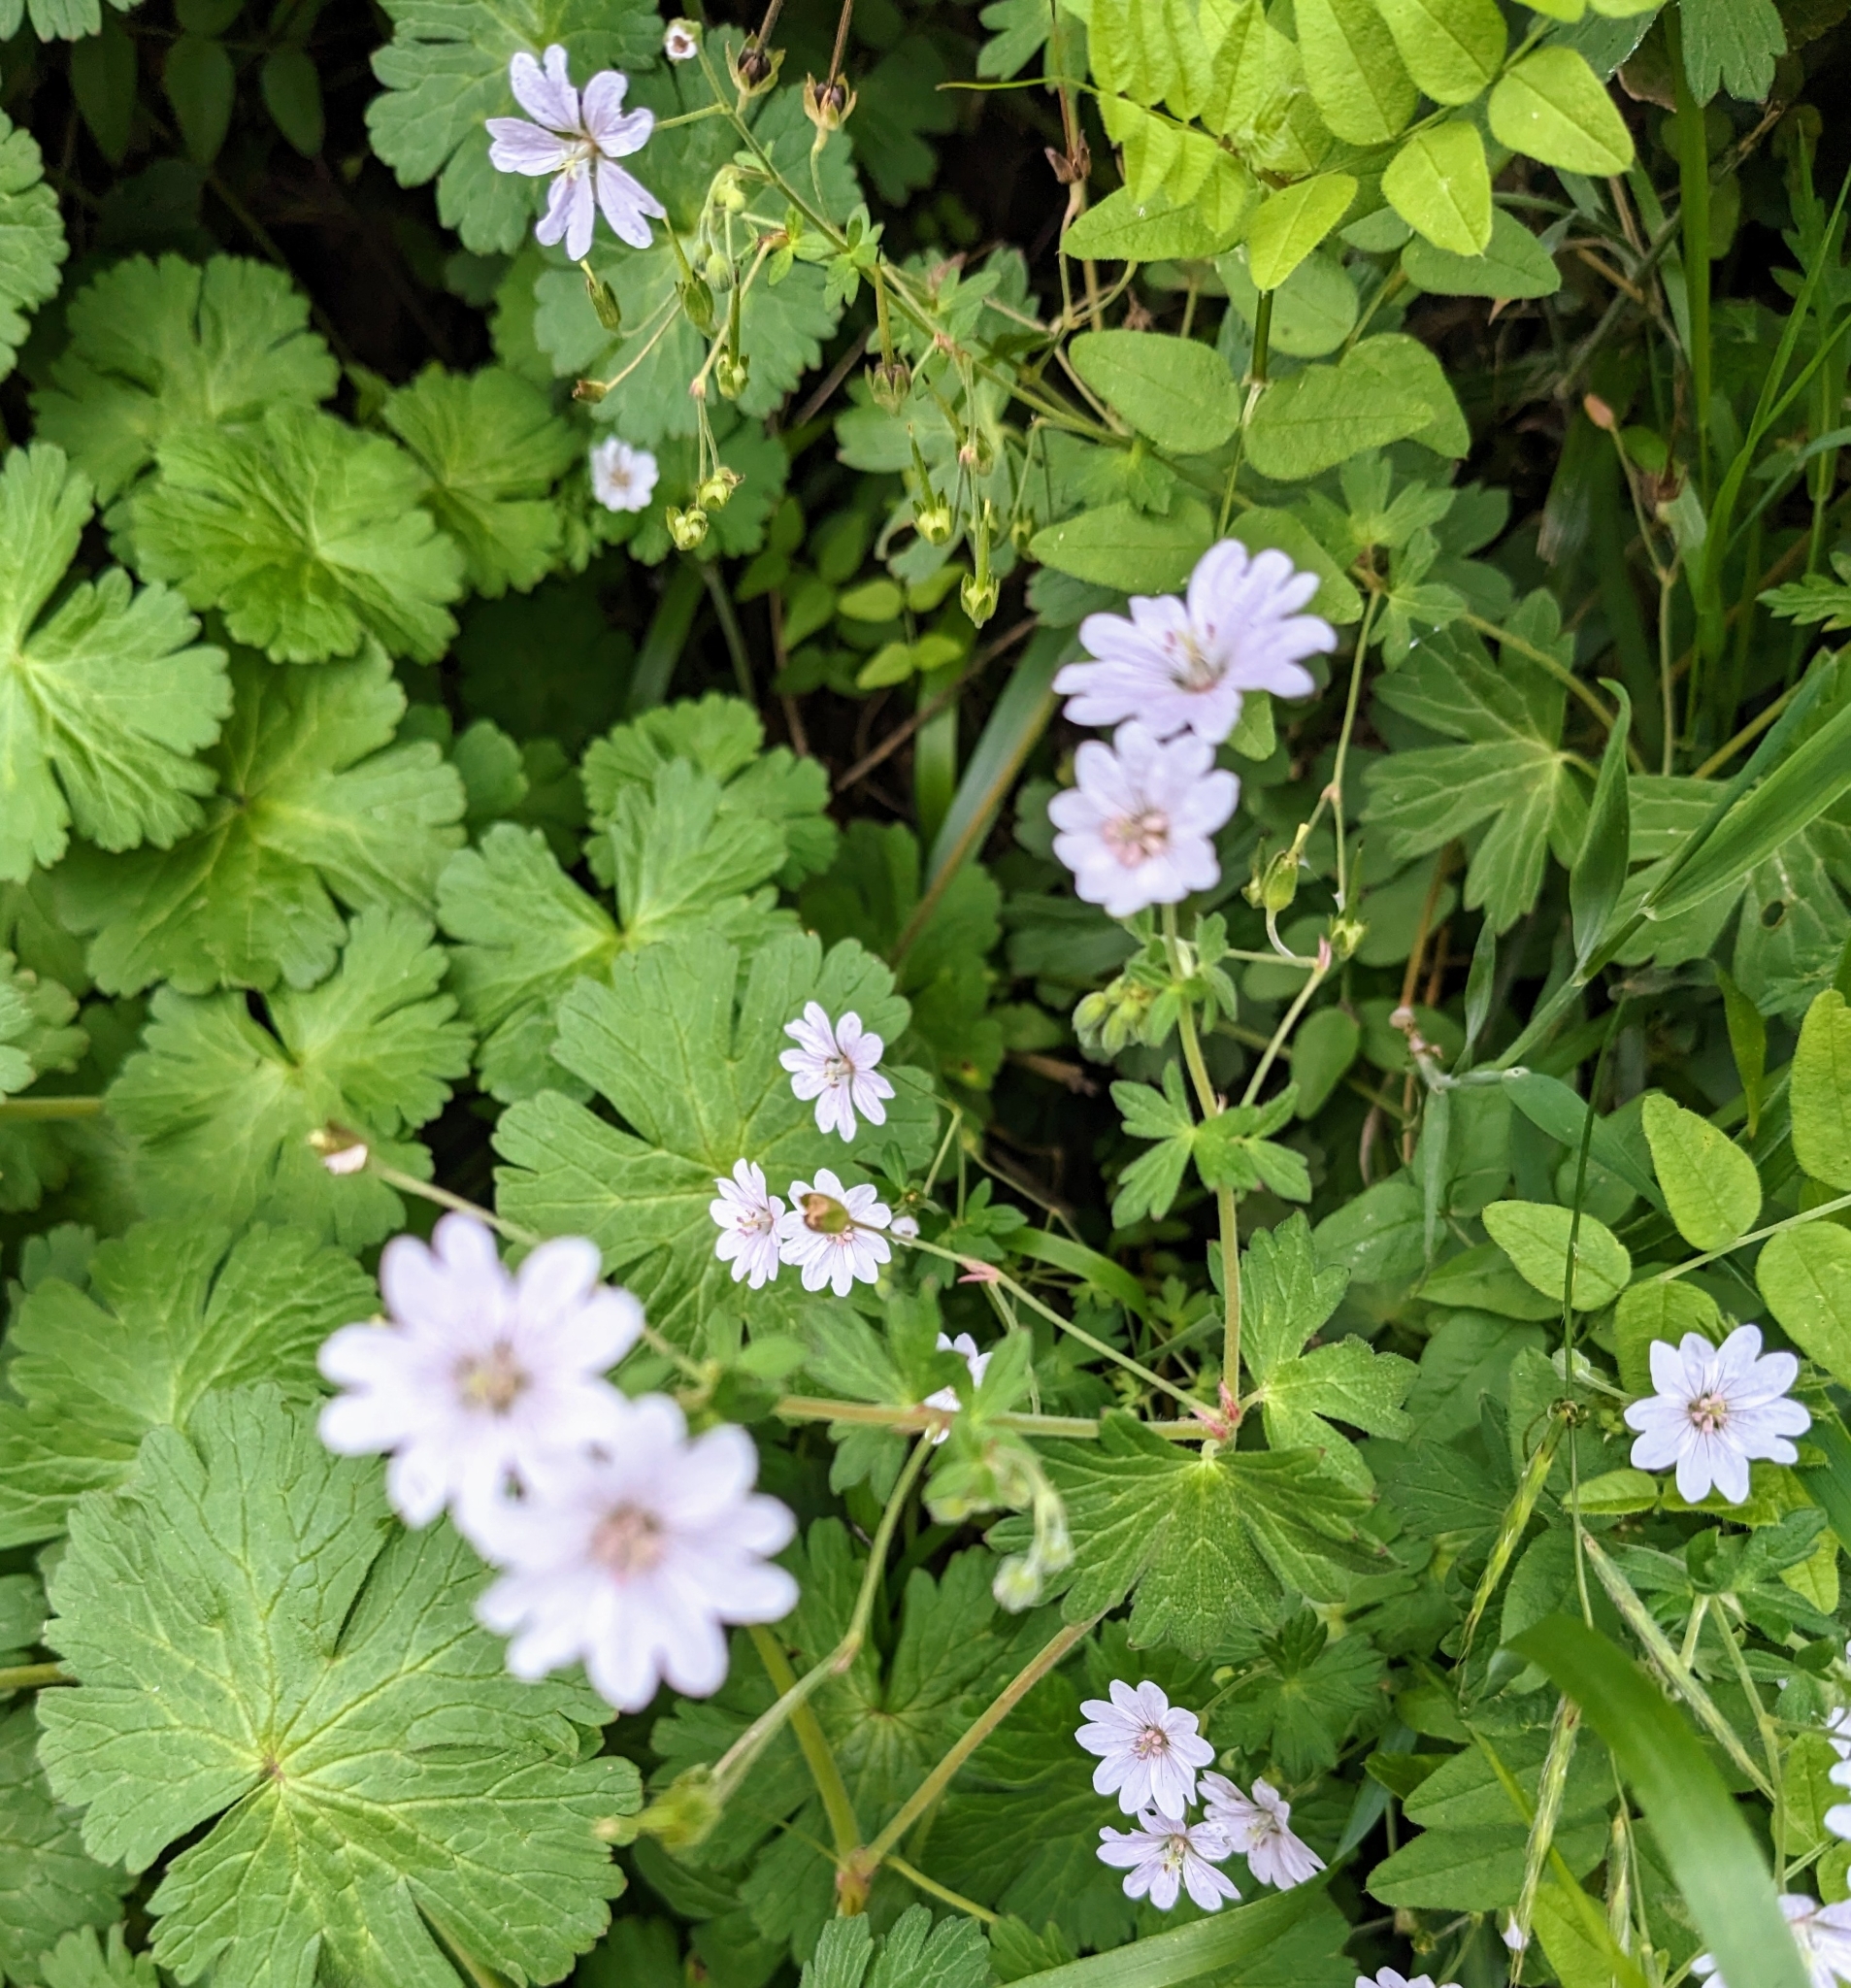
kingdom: Plantae
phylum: Tracheophyta
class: Magnoliopsida
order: Geraniales
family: Geraniaceae
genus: Geranium
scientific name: Geranium pyrenaicum
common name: Hedgerow crane's-bill
